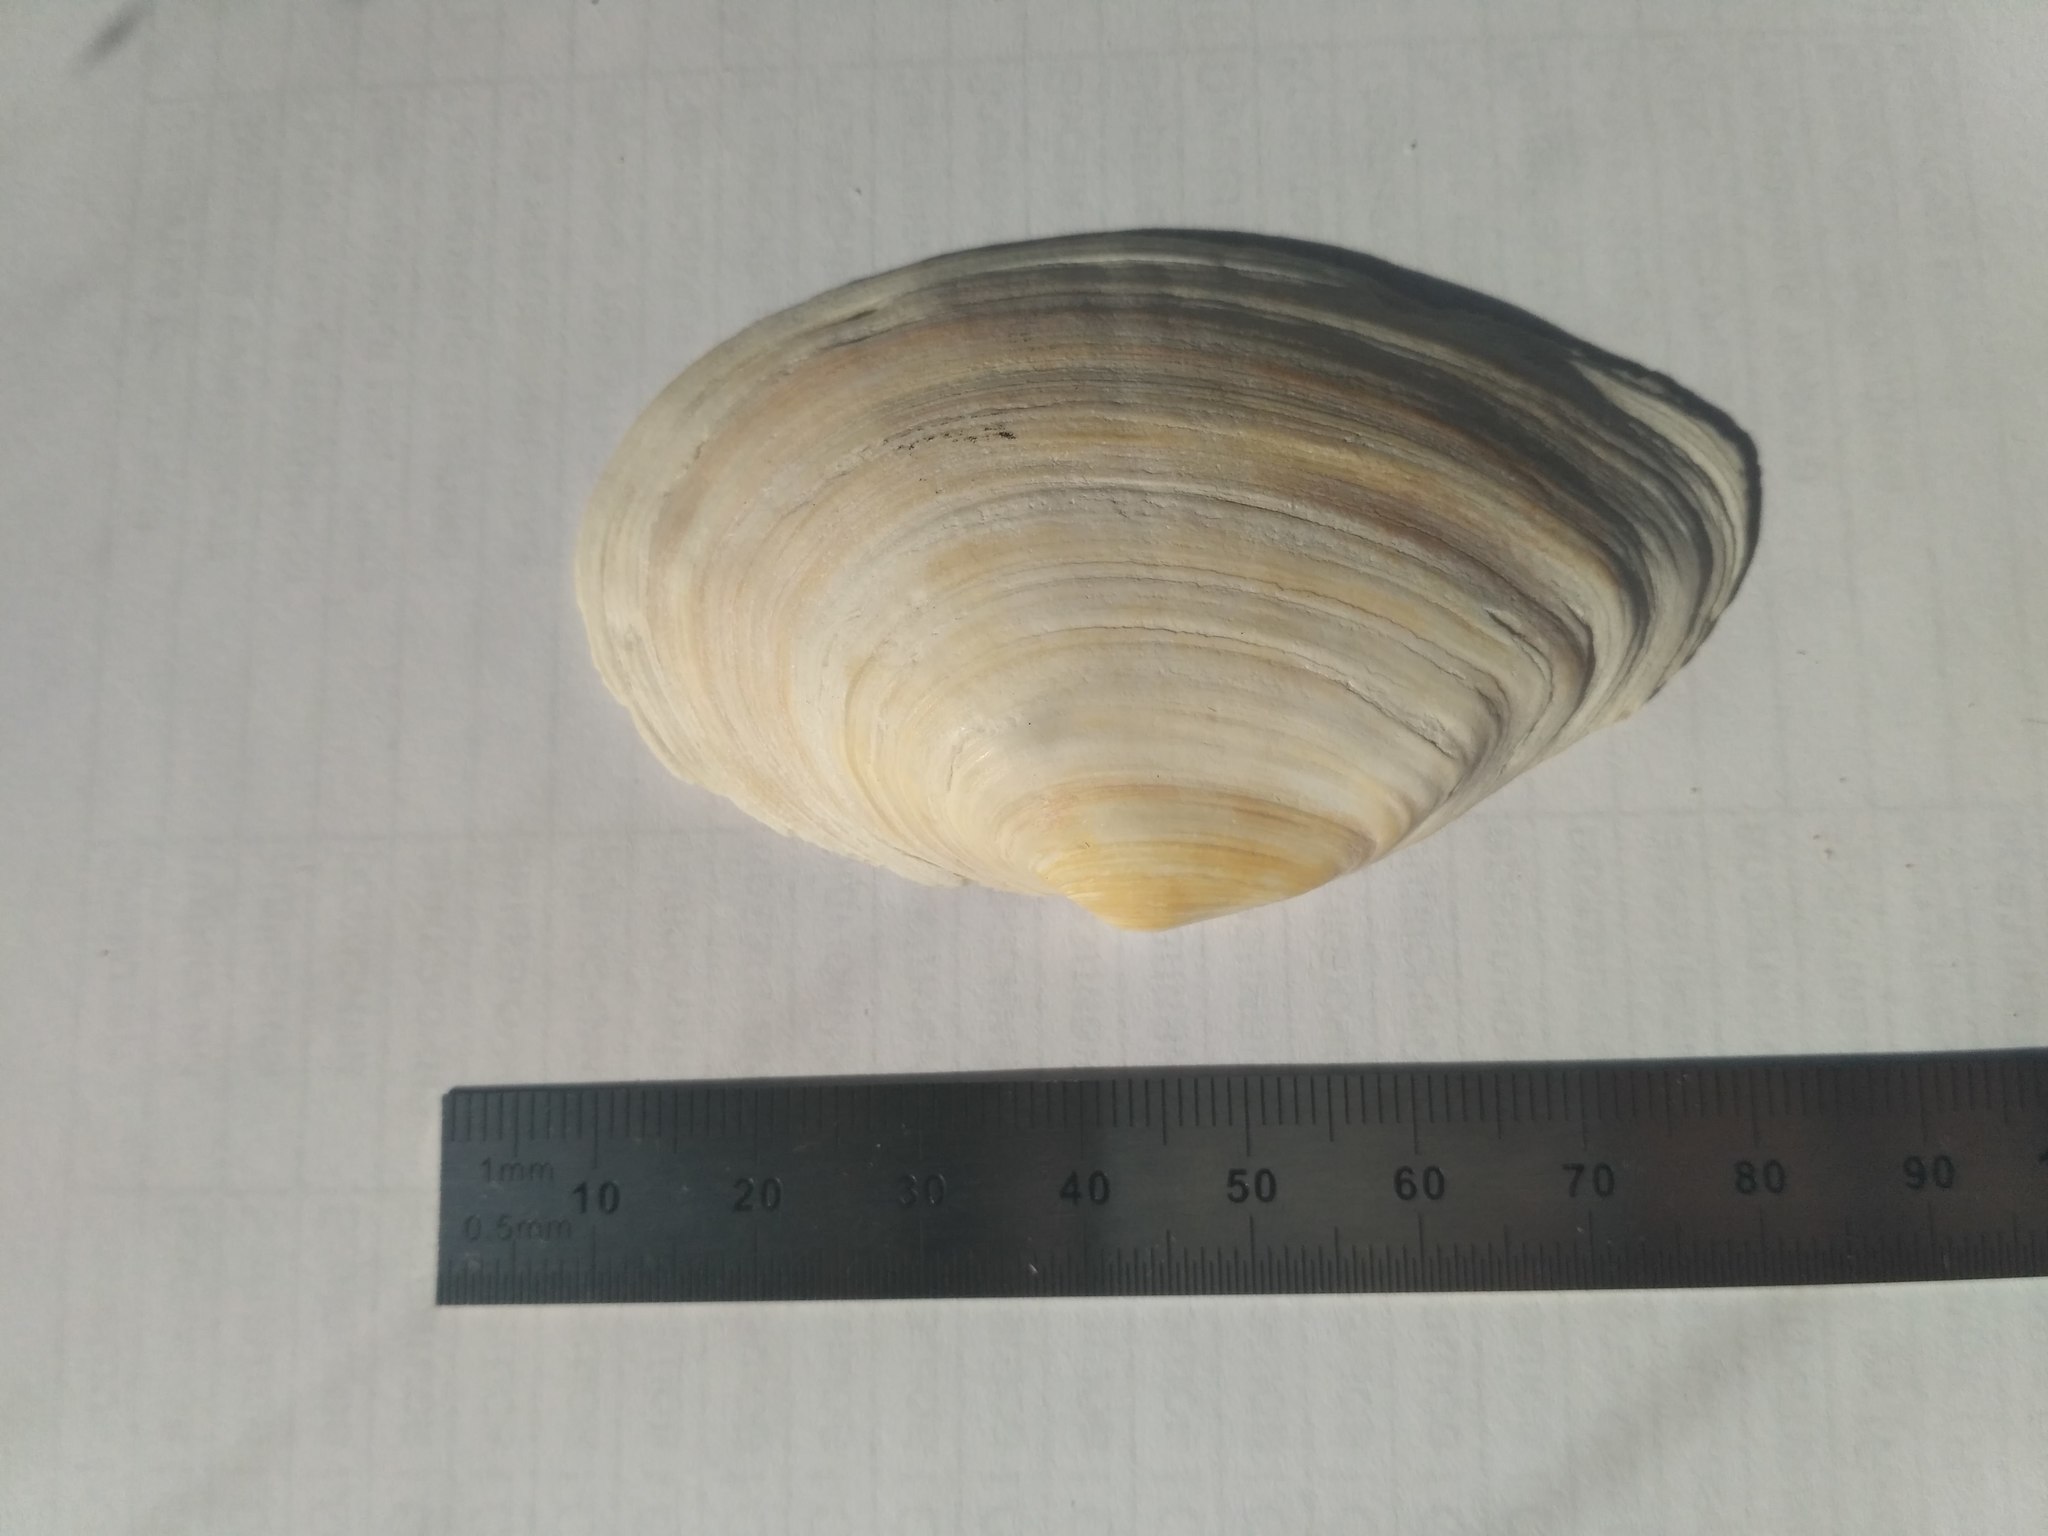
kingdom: Animalia
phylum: Mollusca
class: Bivalvia
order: Myida
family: Myidae
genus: Mya
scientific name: Mya arenaria
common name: Soft-shelled clam
